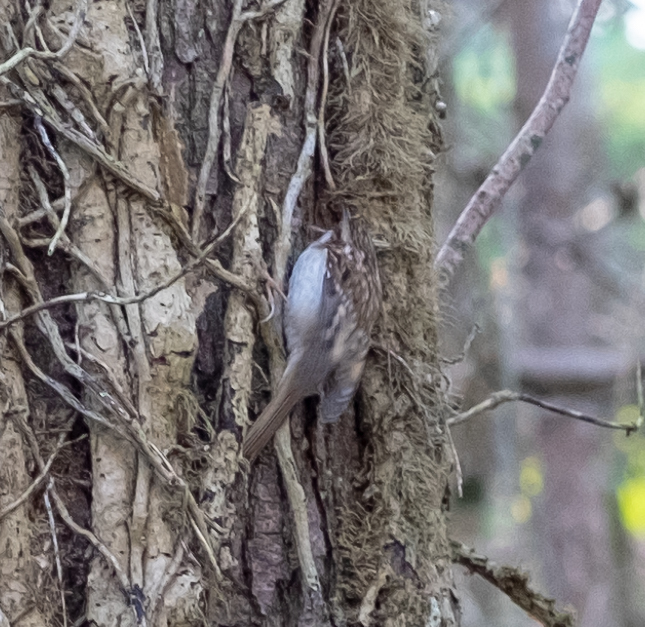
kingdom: Animalia
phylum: Chordata
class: Aves
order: Passeriformes
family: Certhiidae
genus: Certhia
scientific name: Certhia familiaris
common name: Eurasian treecreeper
